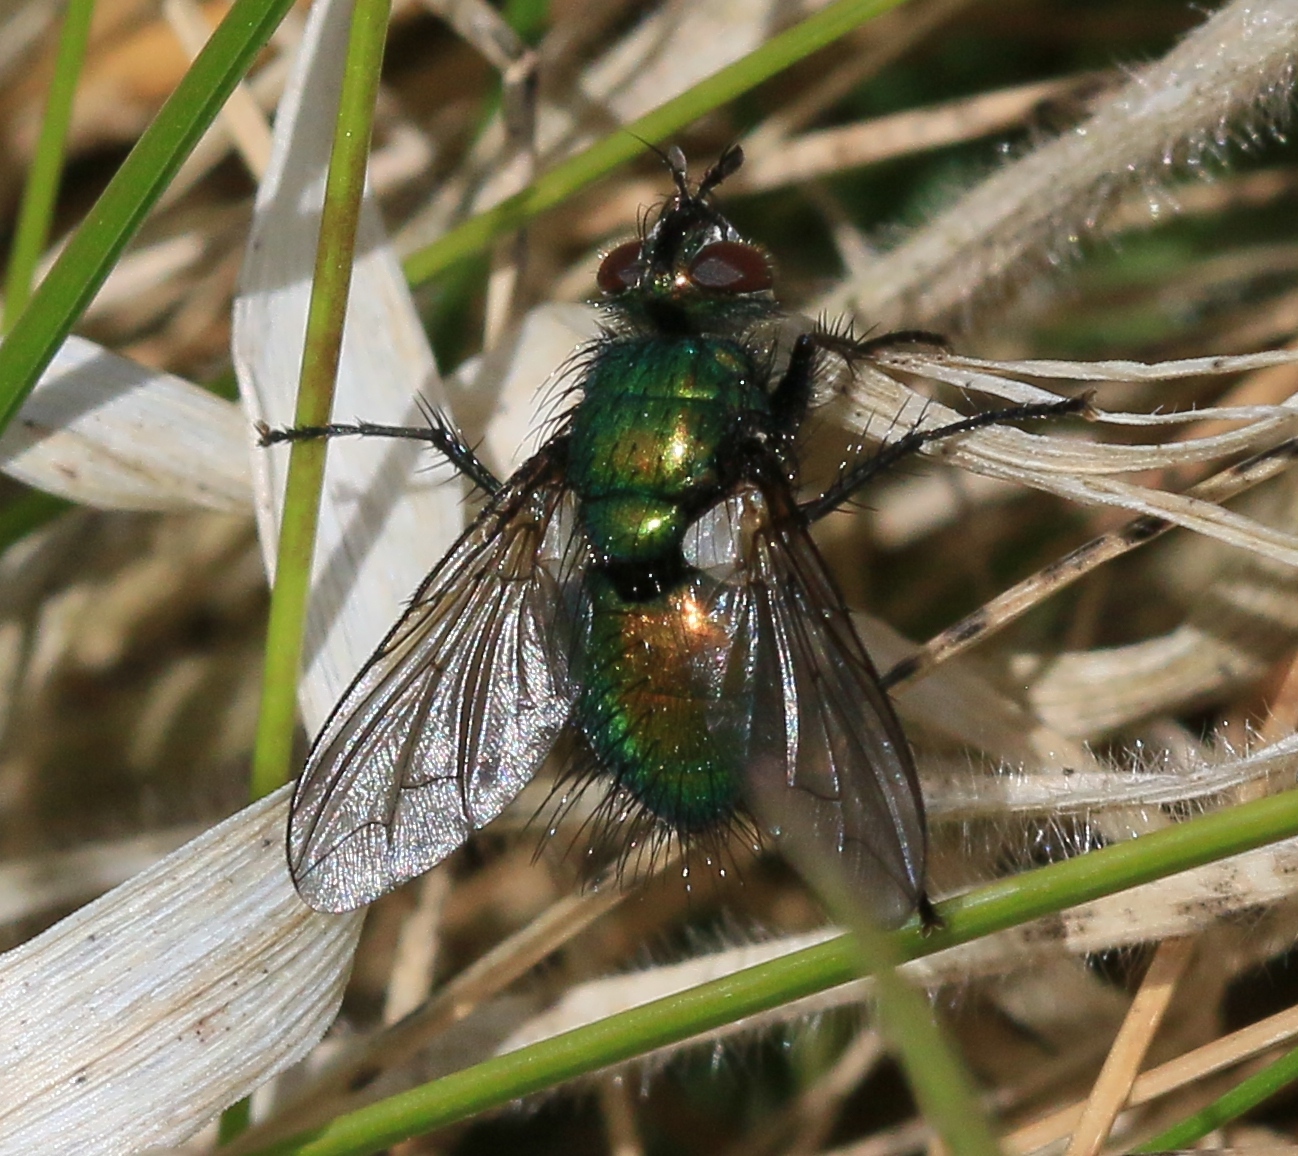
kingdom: Animalia
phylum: Arthropoda
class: Insecta
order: Diptera
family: Tachinidae
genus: Gymnocheta
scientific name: Gymnocheta viridis
